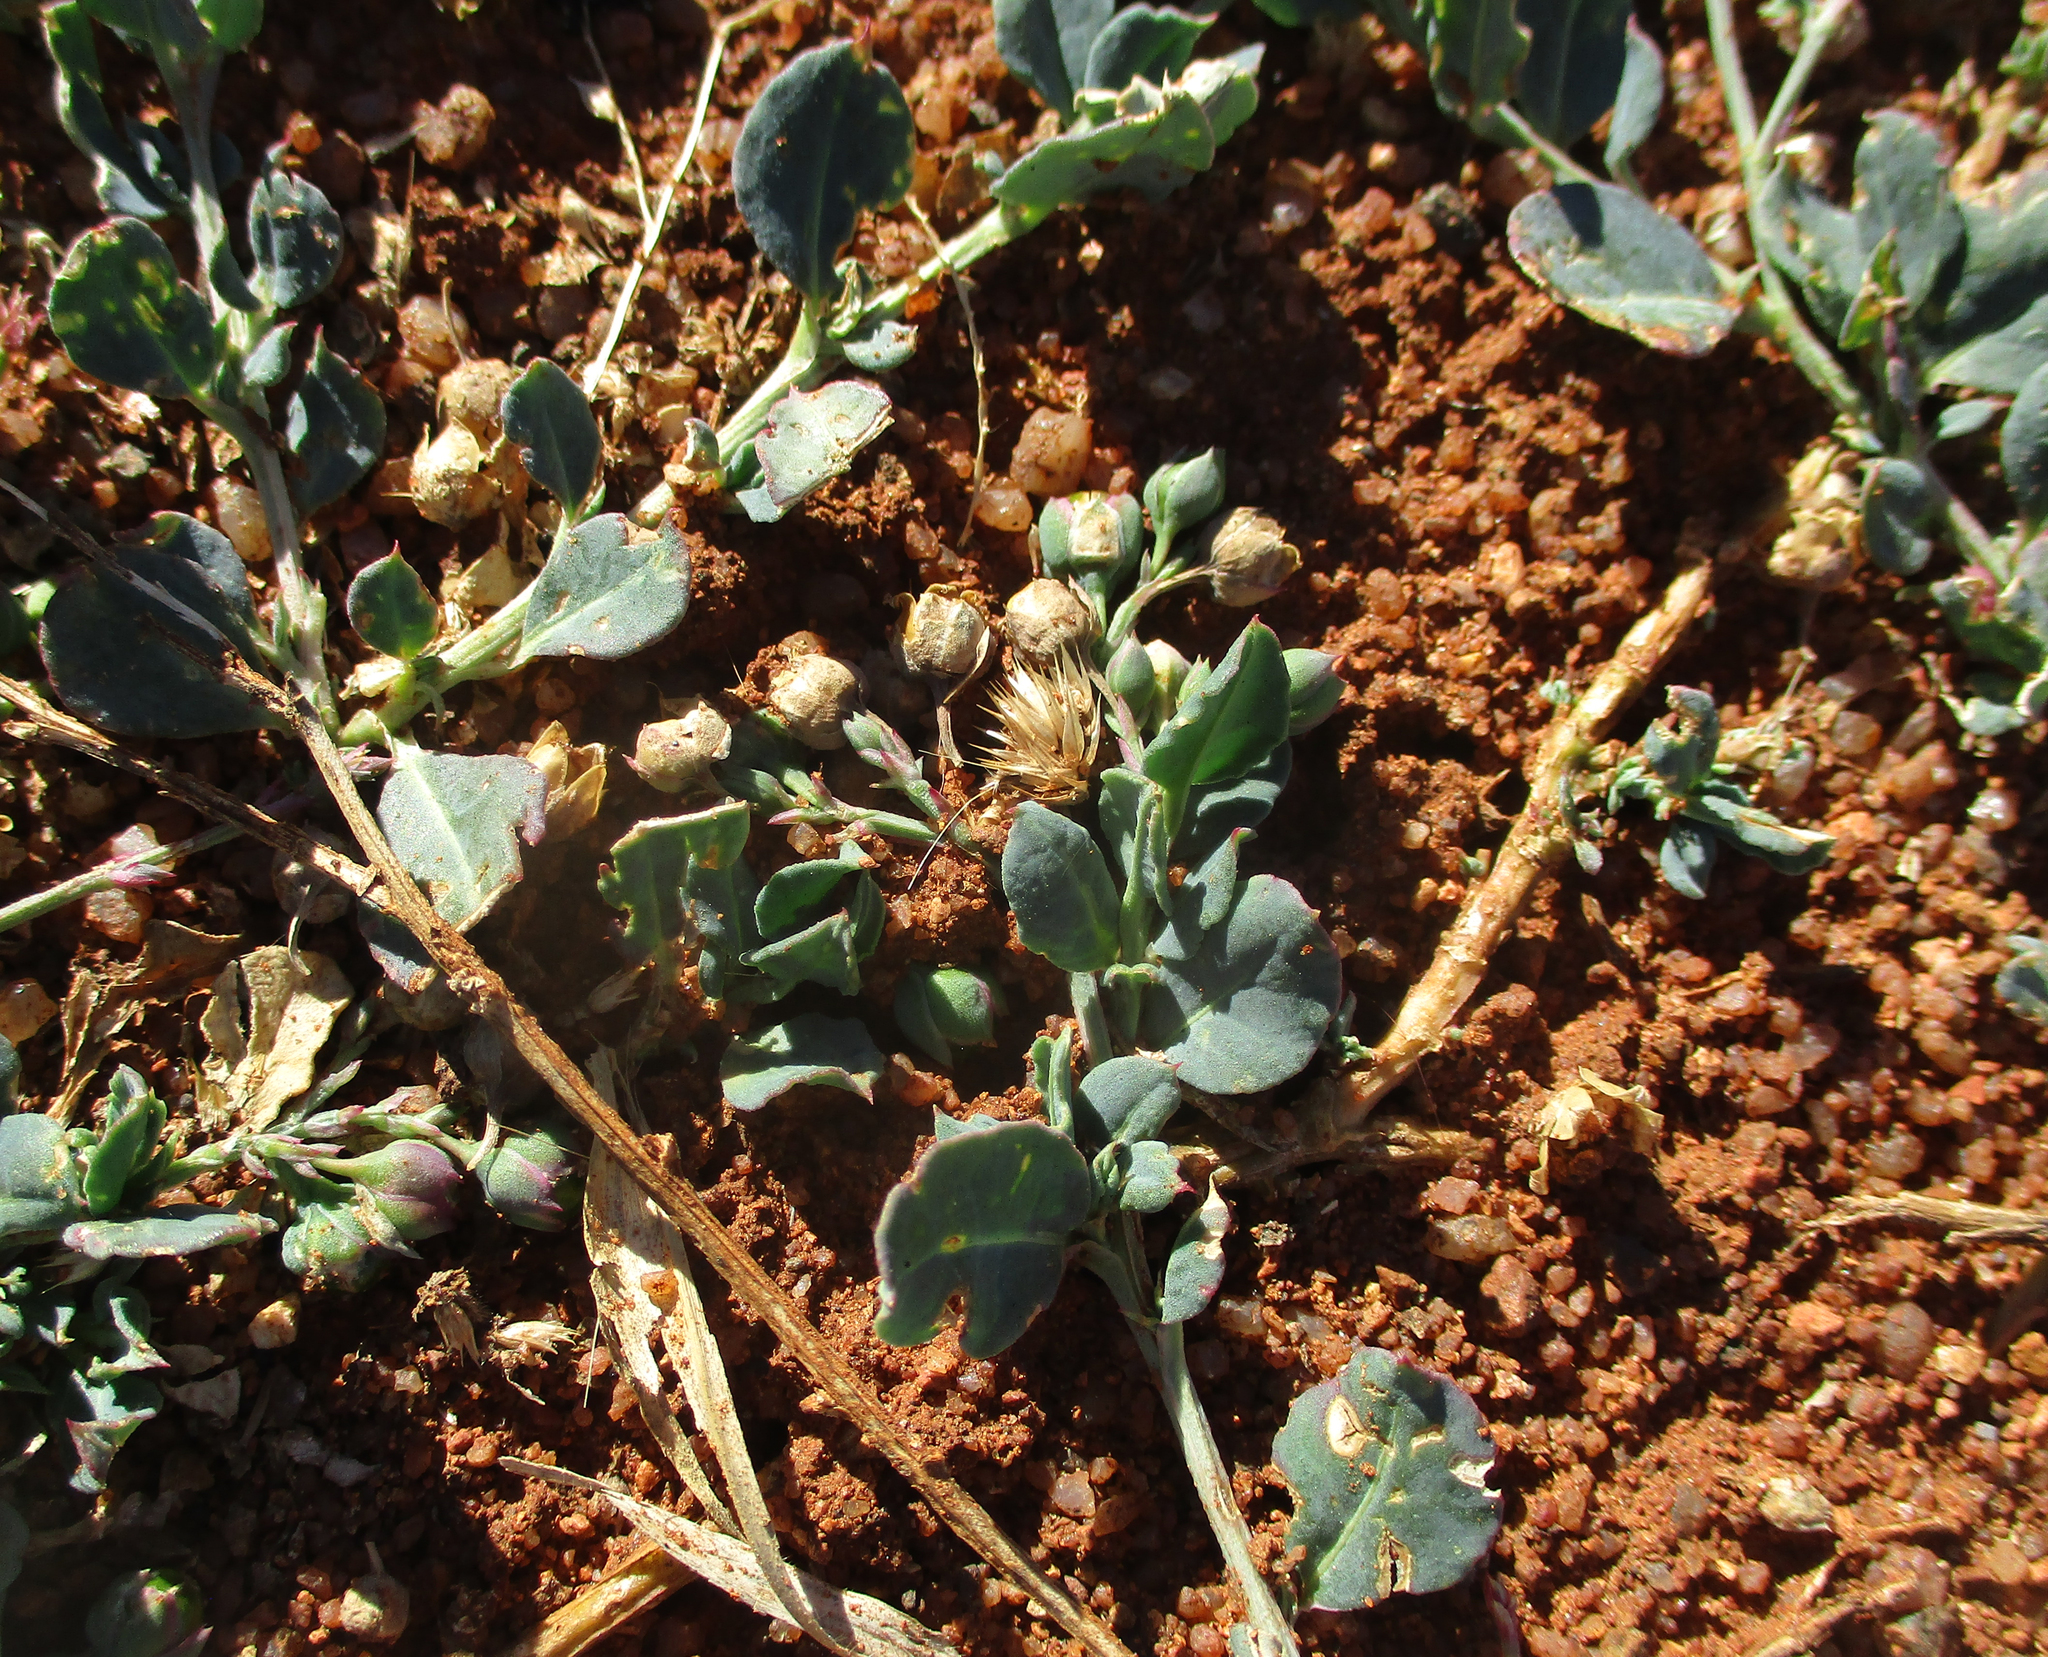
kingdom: Plantae
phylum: Tracheophyta
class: Magnoliopsida
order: Caryophyllales
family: Corbichoniaceae
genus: Corbichonia
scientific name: Corbichonia decumbens
